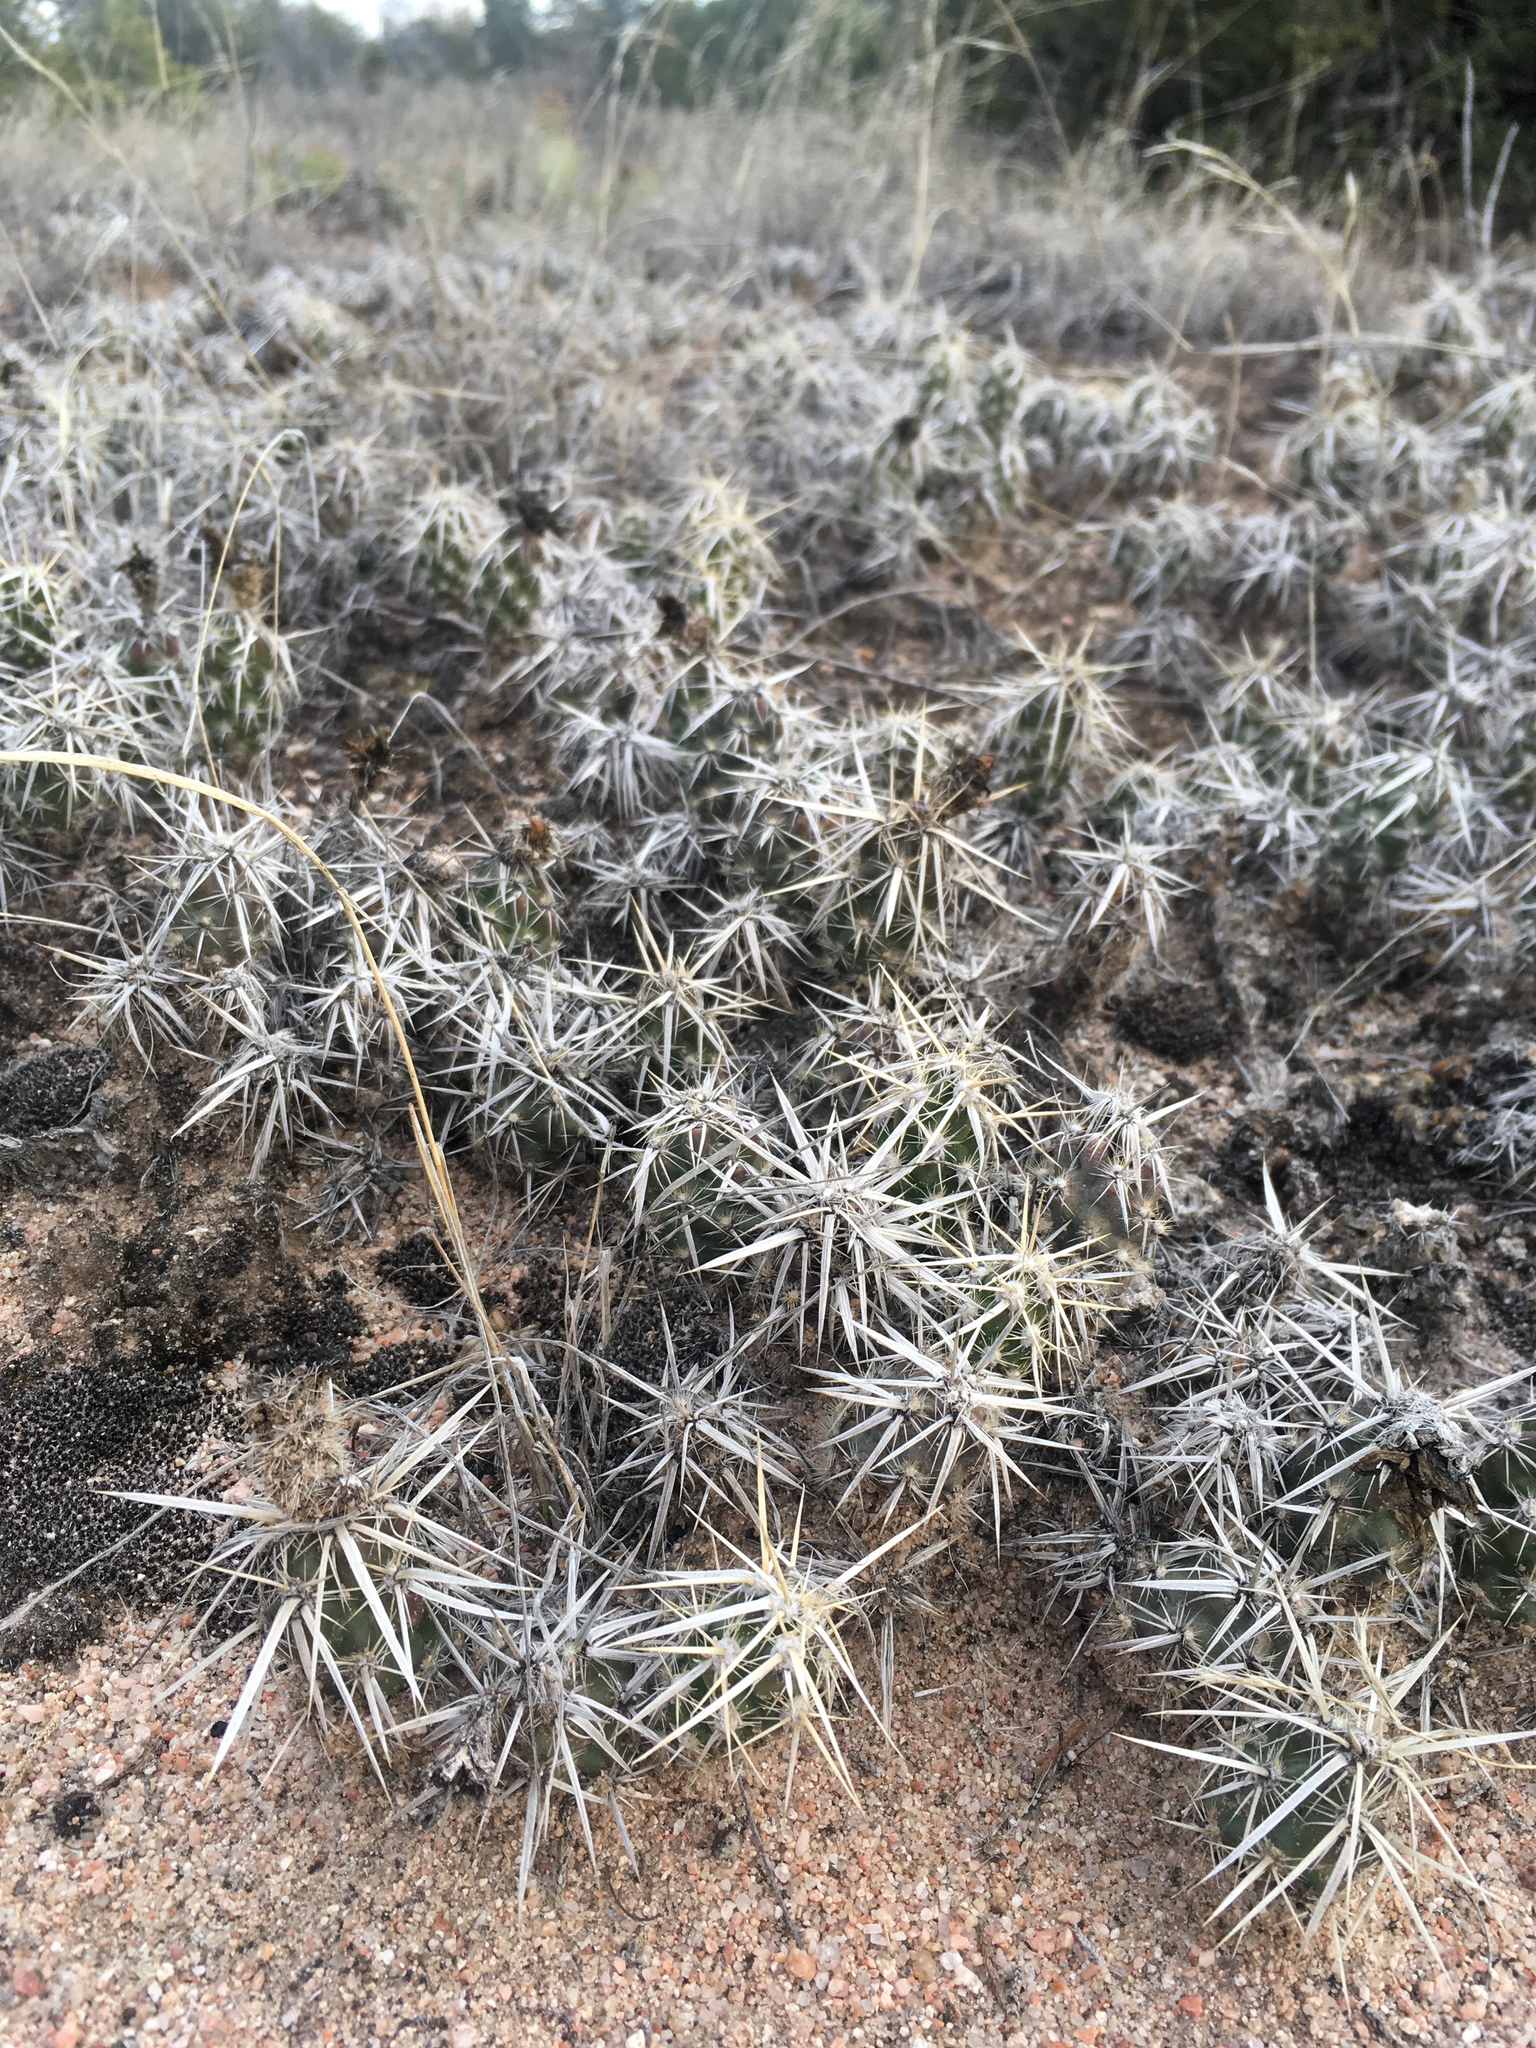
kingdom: Plantae
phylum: Tracheophyta
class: Magnoliopsida
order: Caryophyllales
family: Cactaceae
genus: Grusonia
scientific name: Grusonia clavata
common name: Club cholla
